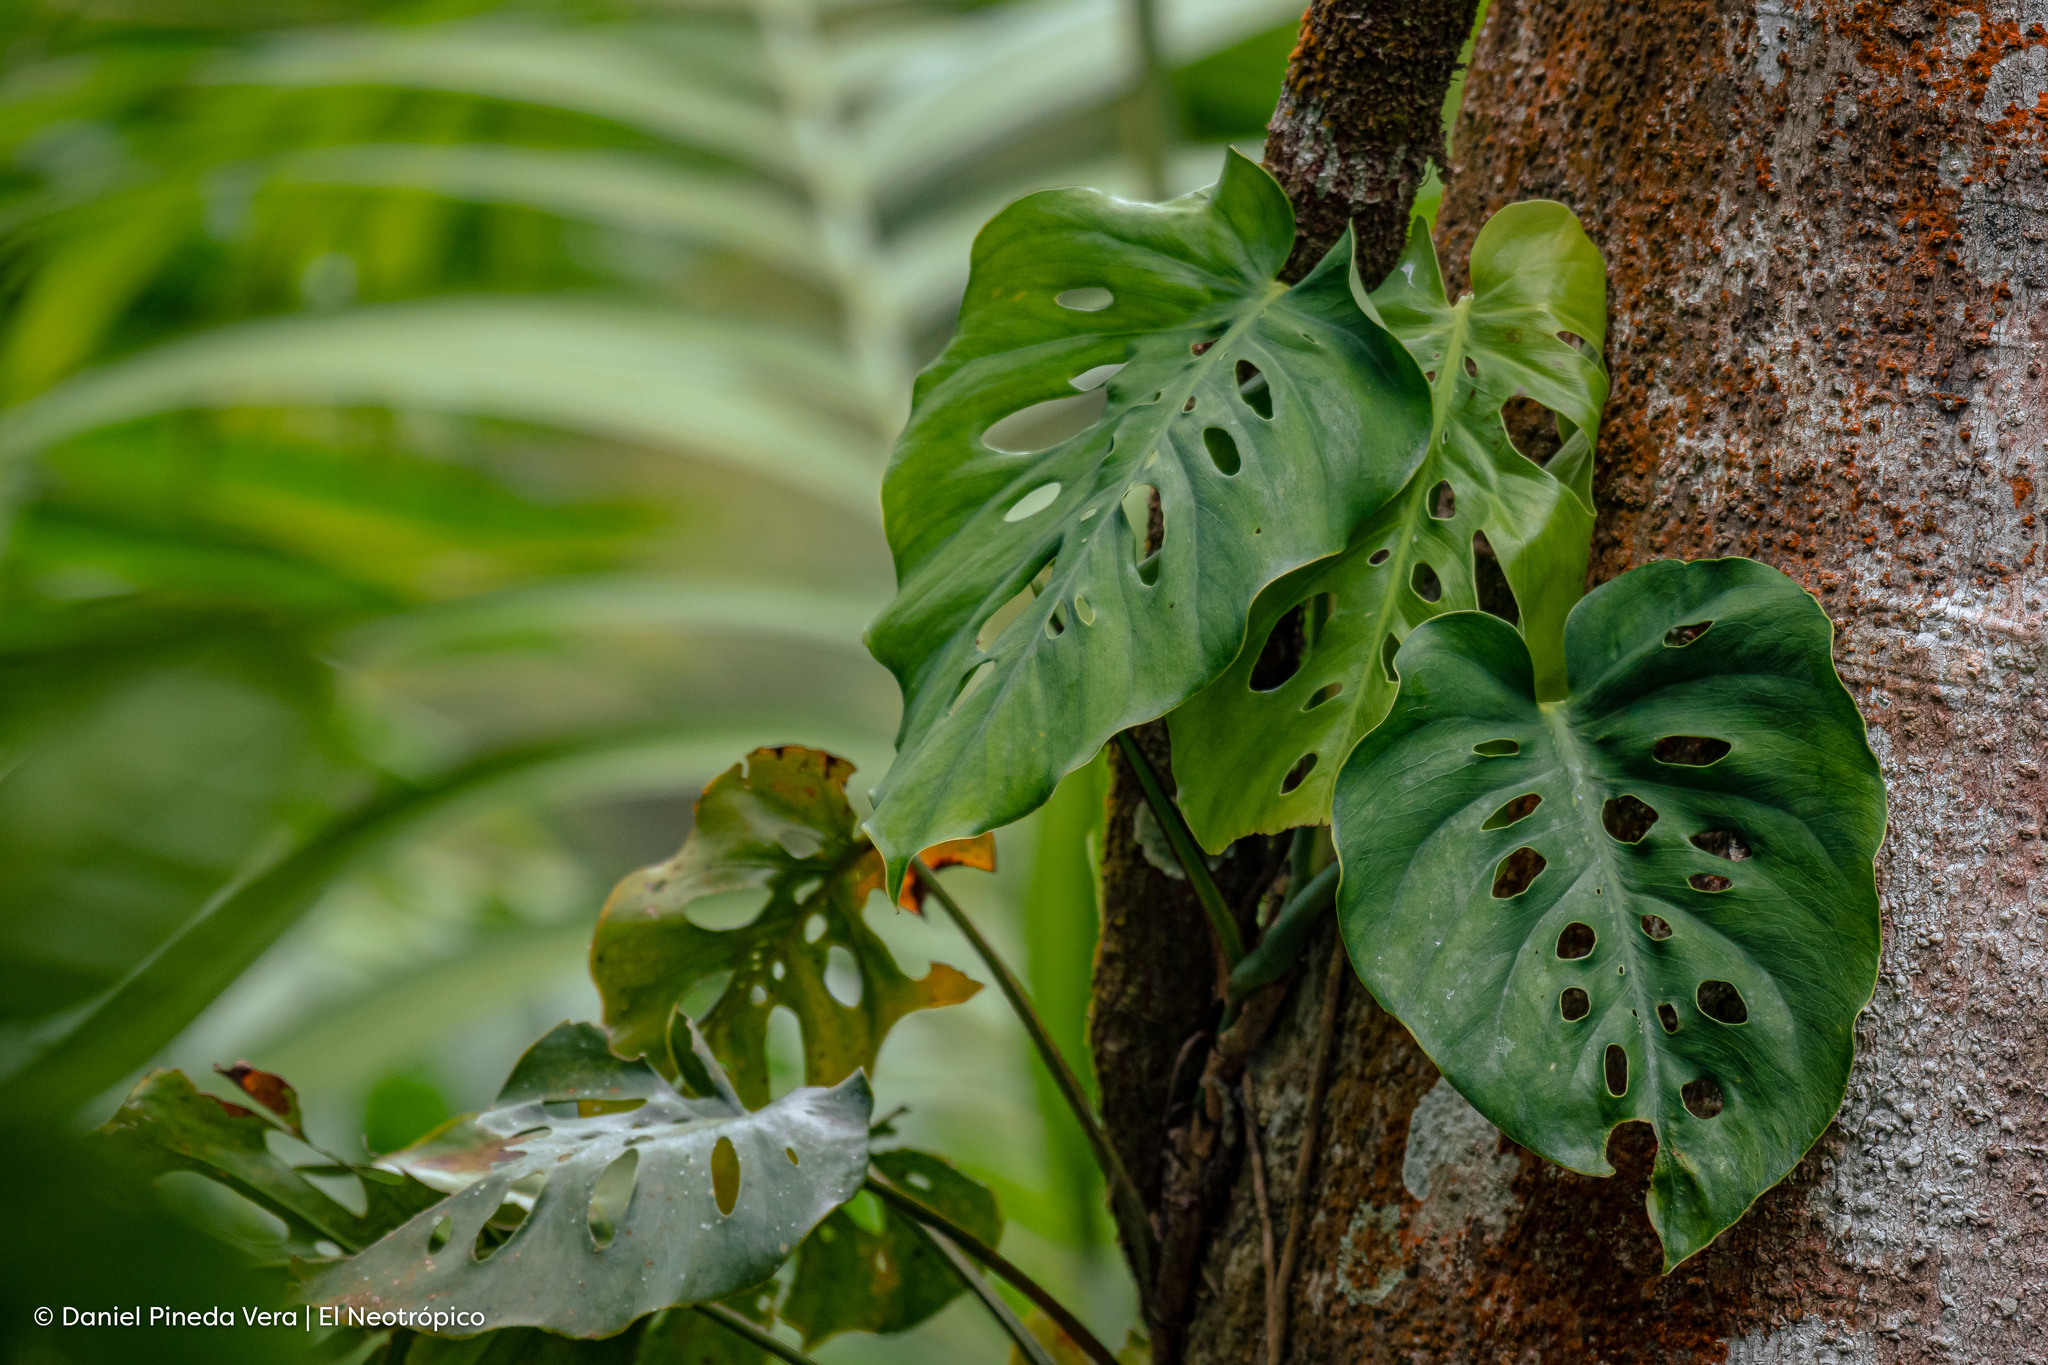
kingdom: Plantae
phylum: Tracheophyta
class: Liliopsida
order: Alismatales
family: Araceae
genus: Monstera
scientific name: Monstera siltepecana
